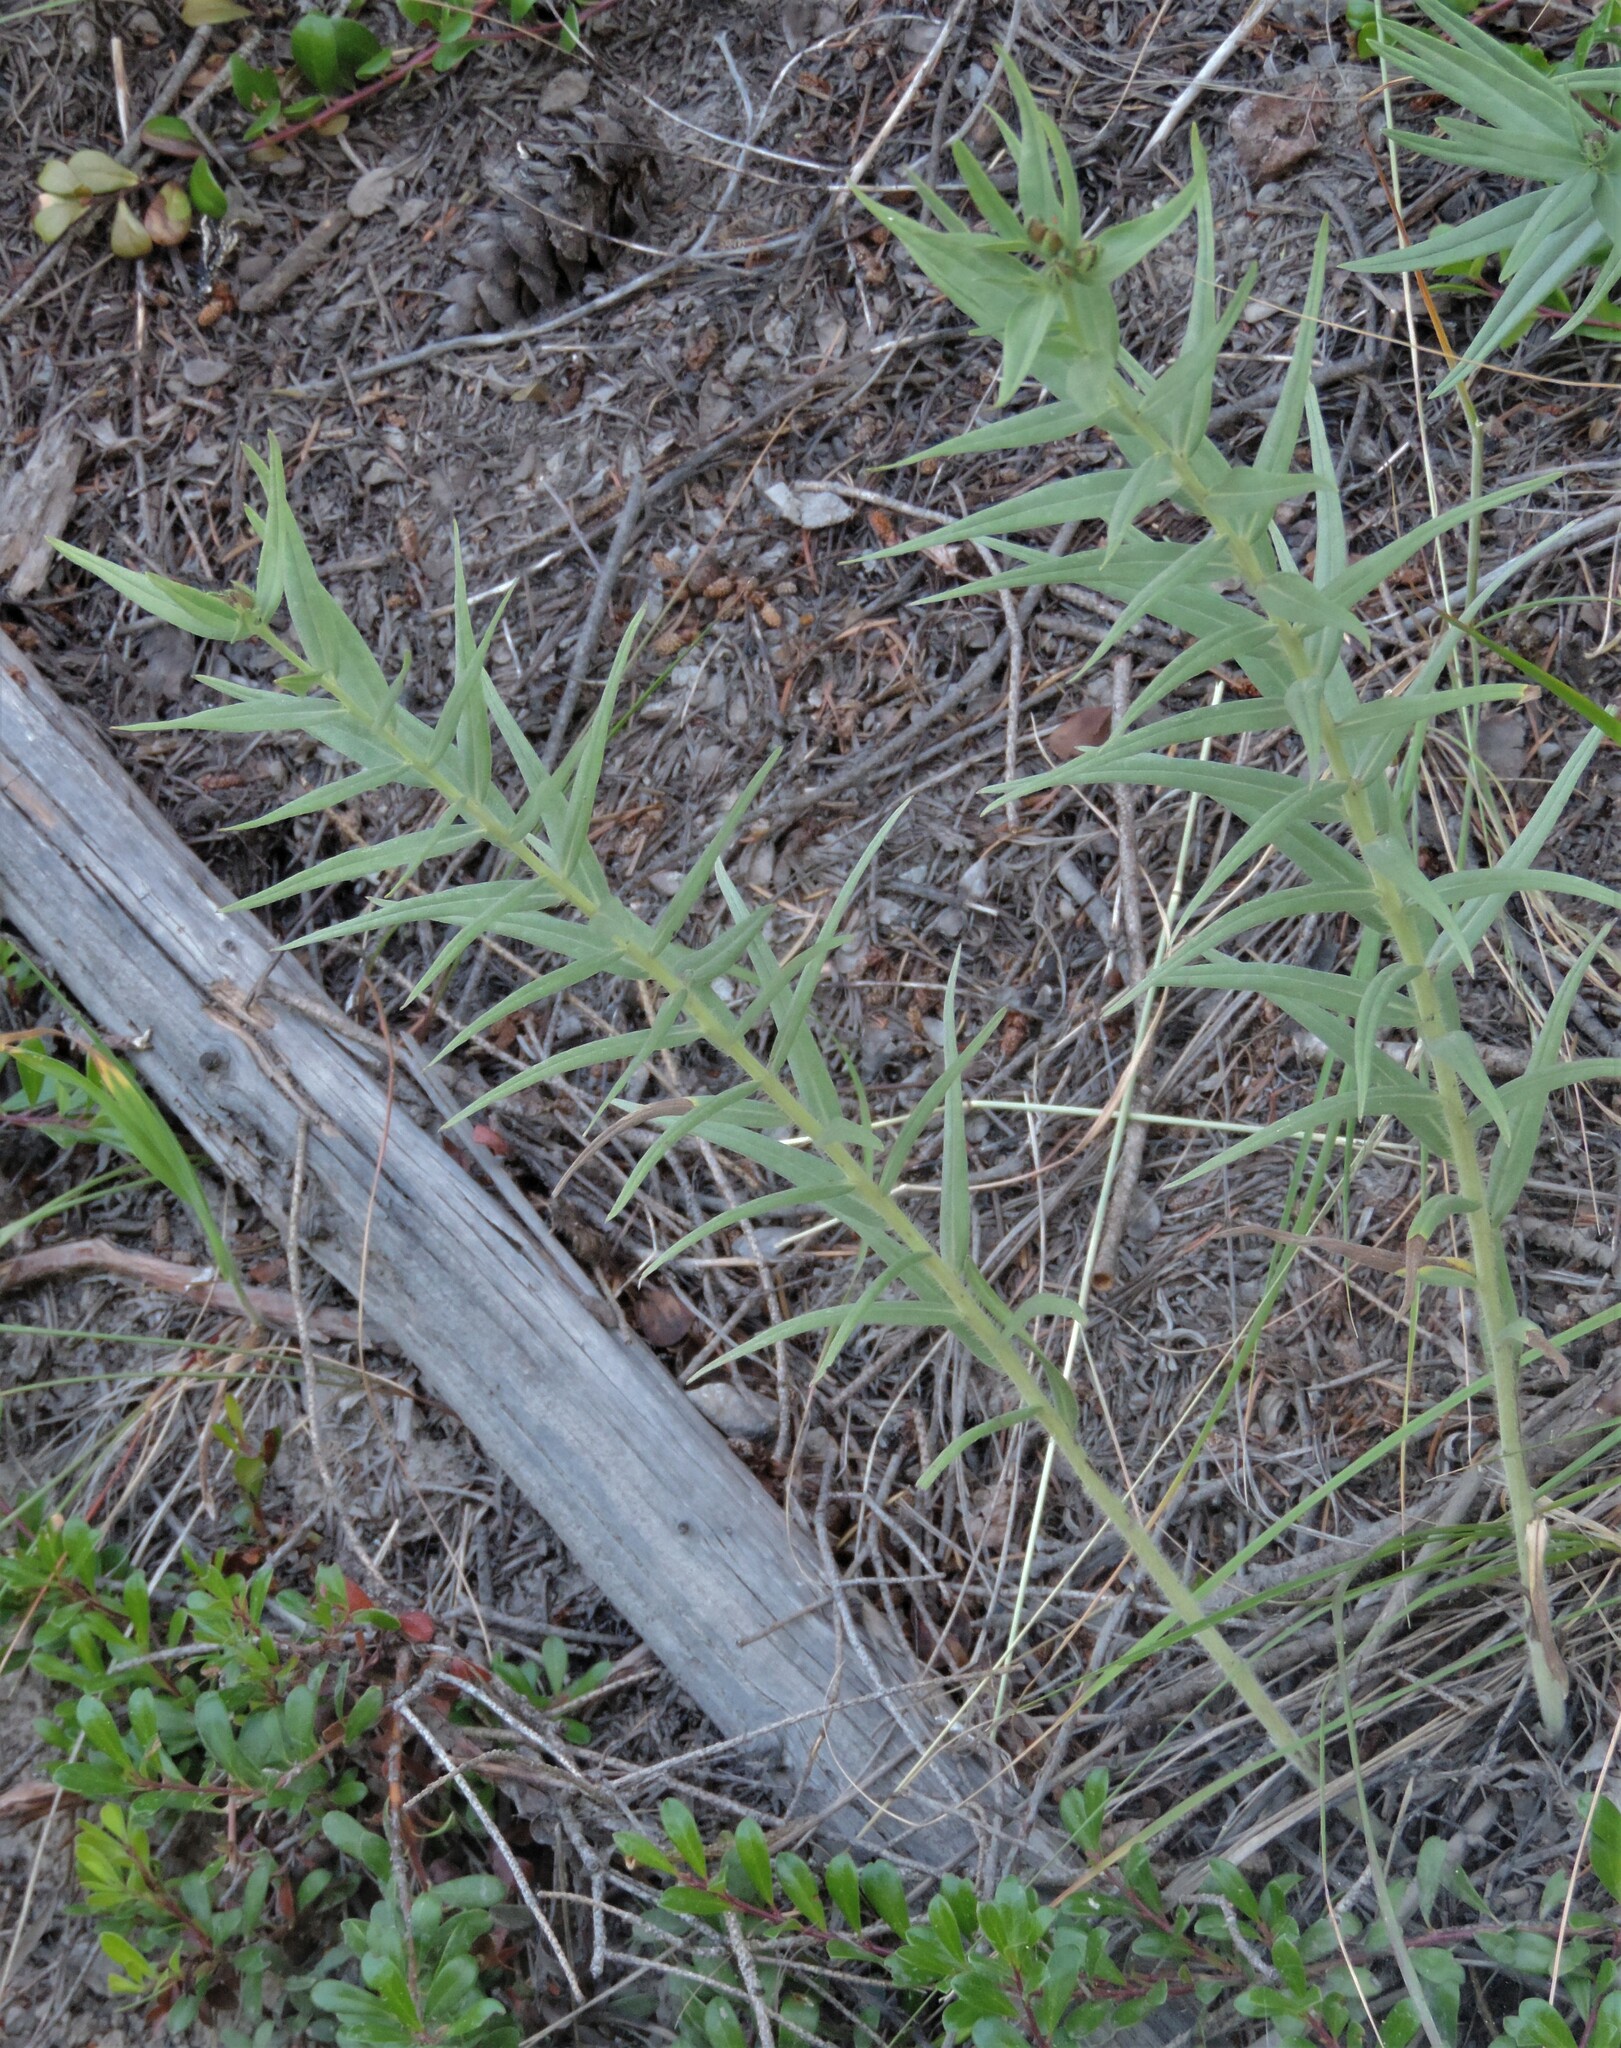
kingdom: Plantae
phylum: Tracheophyta
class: Magnoliopsida
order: Boraginales
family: Boraginaceae
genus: Lithospermum
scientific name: Lithospermum ruderale
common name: Western gromwell
